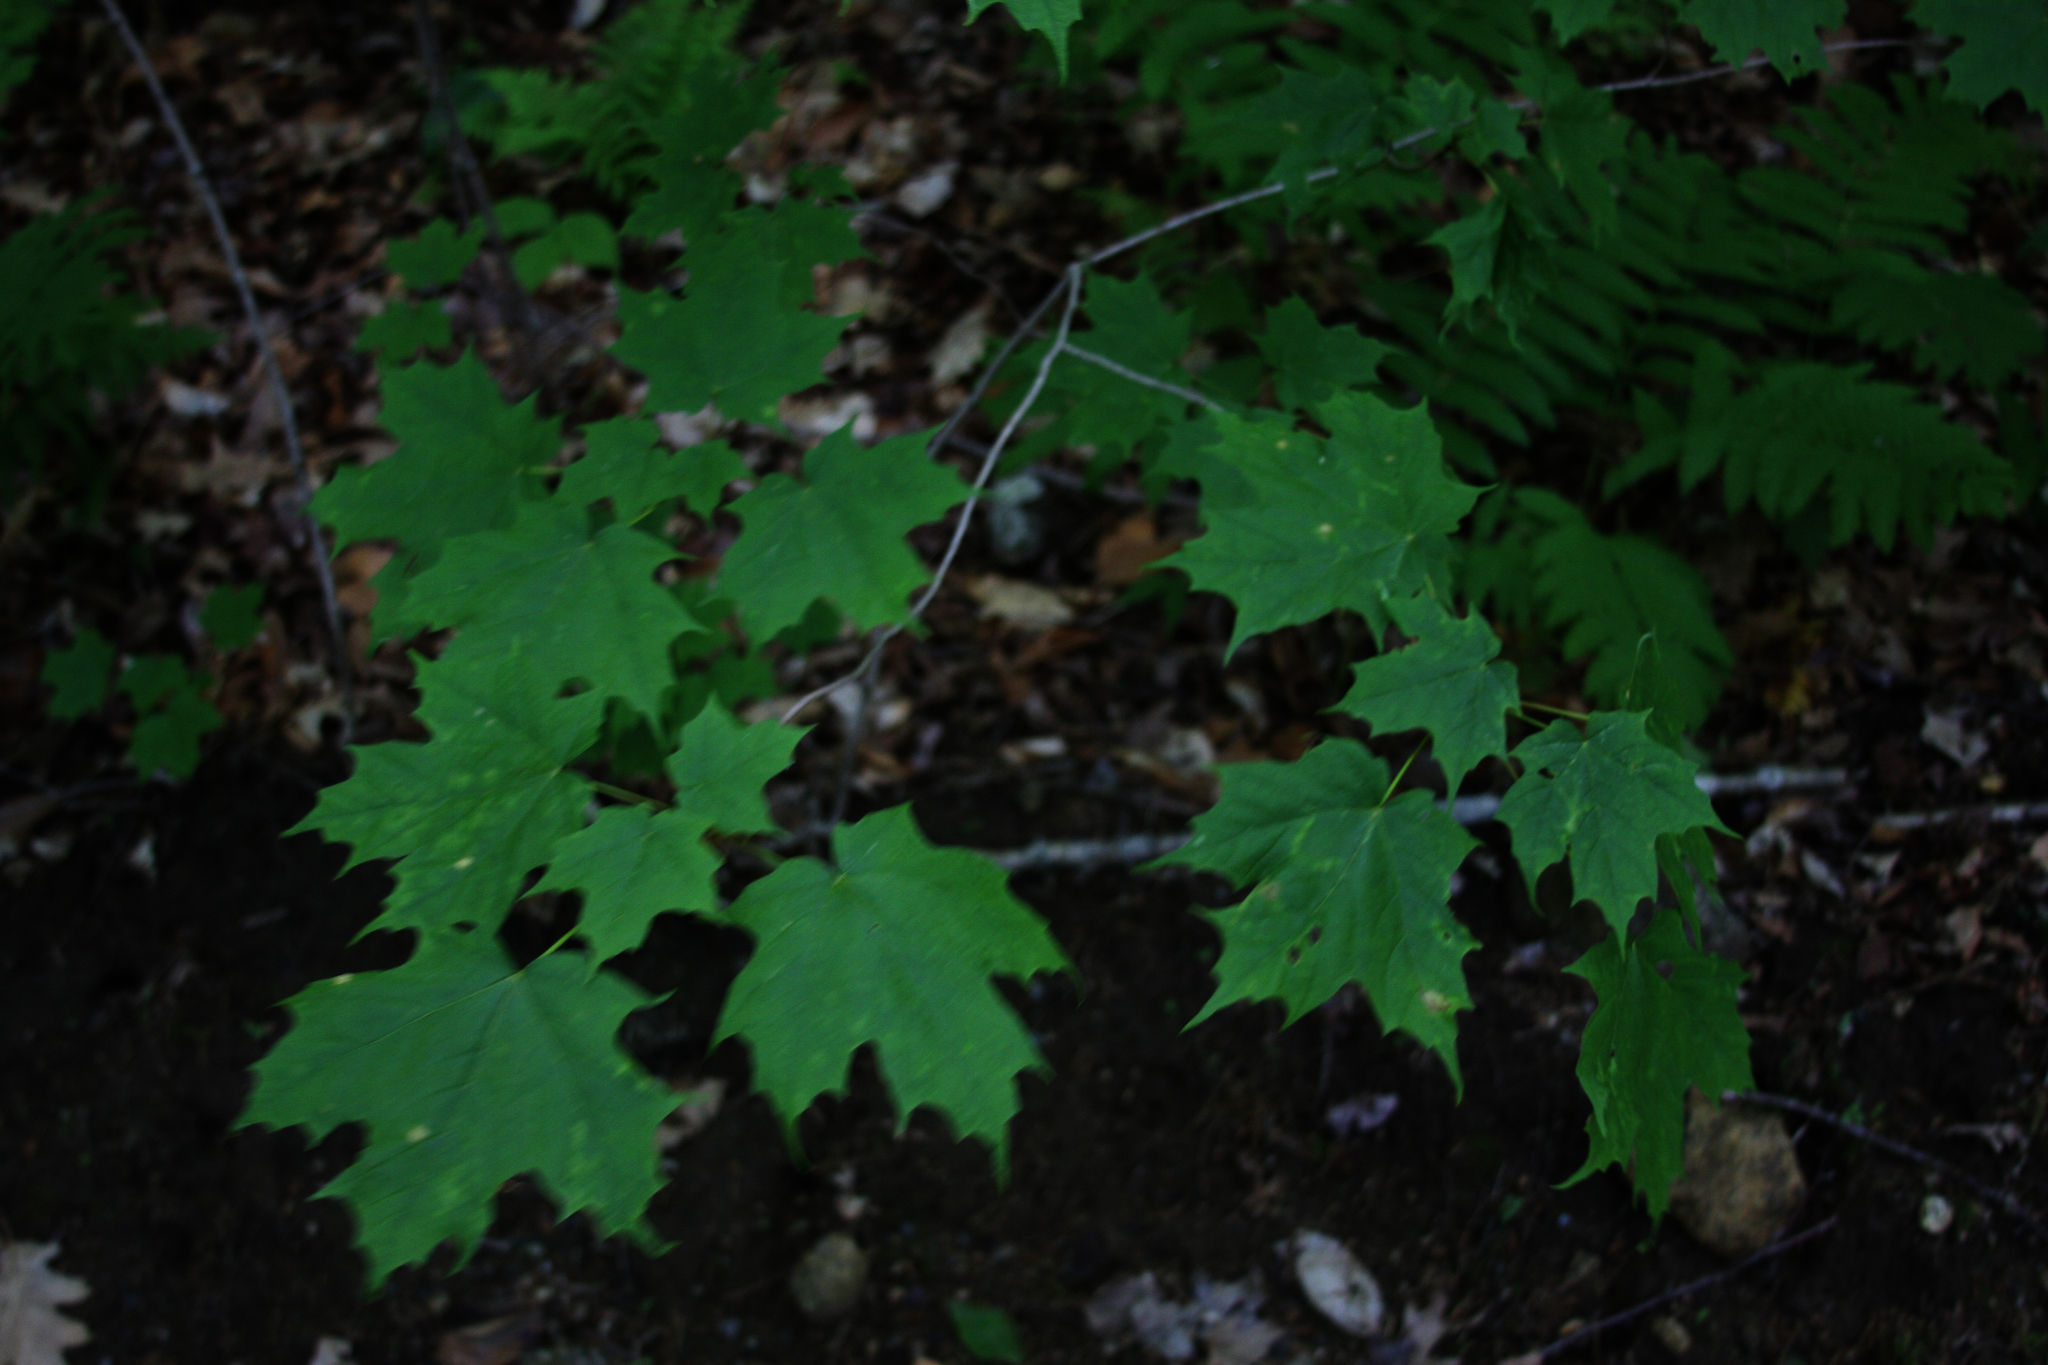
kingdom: Plantae
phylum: Tracheophyta
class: Magnoliopsida
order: Sapindales
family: Sapindaceae
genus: Acer
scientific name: Acer saccharum
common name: Sugar maple
